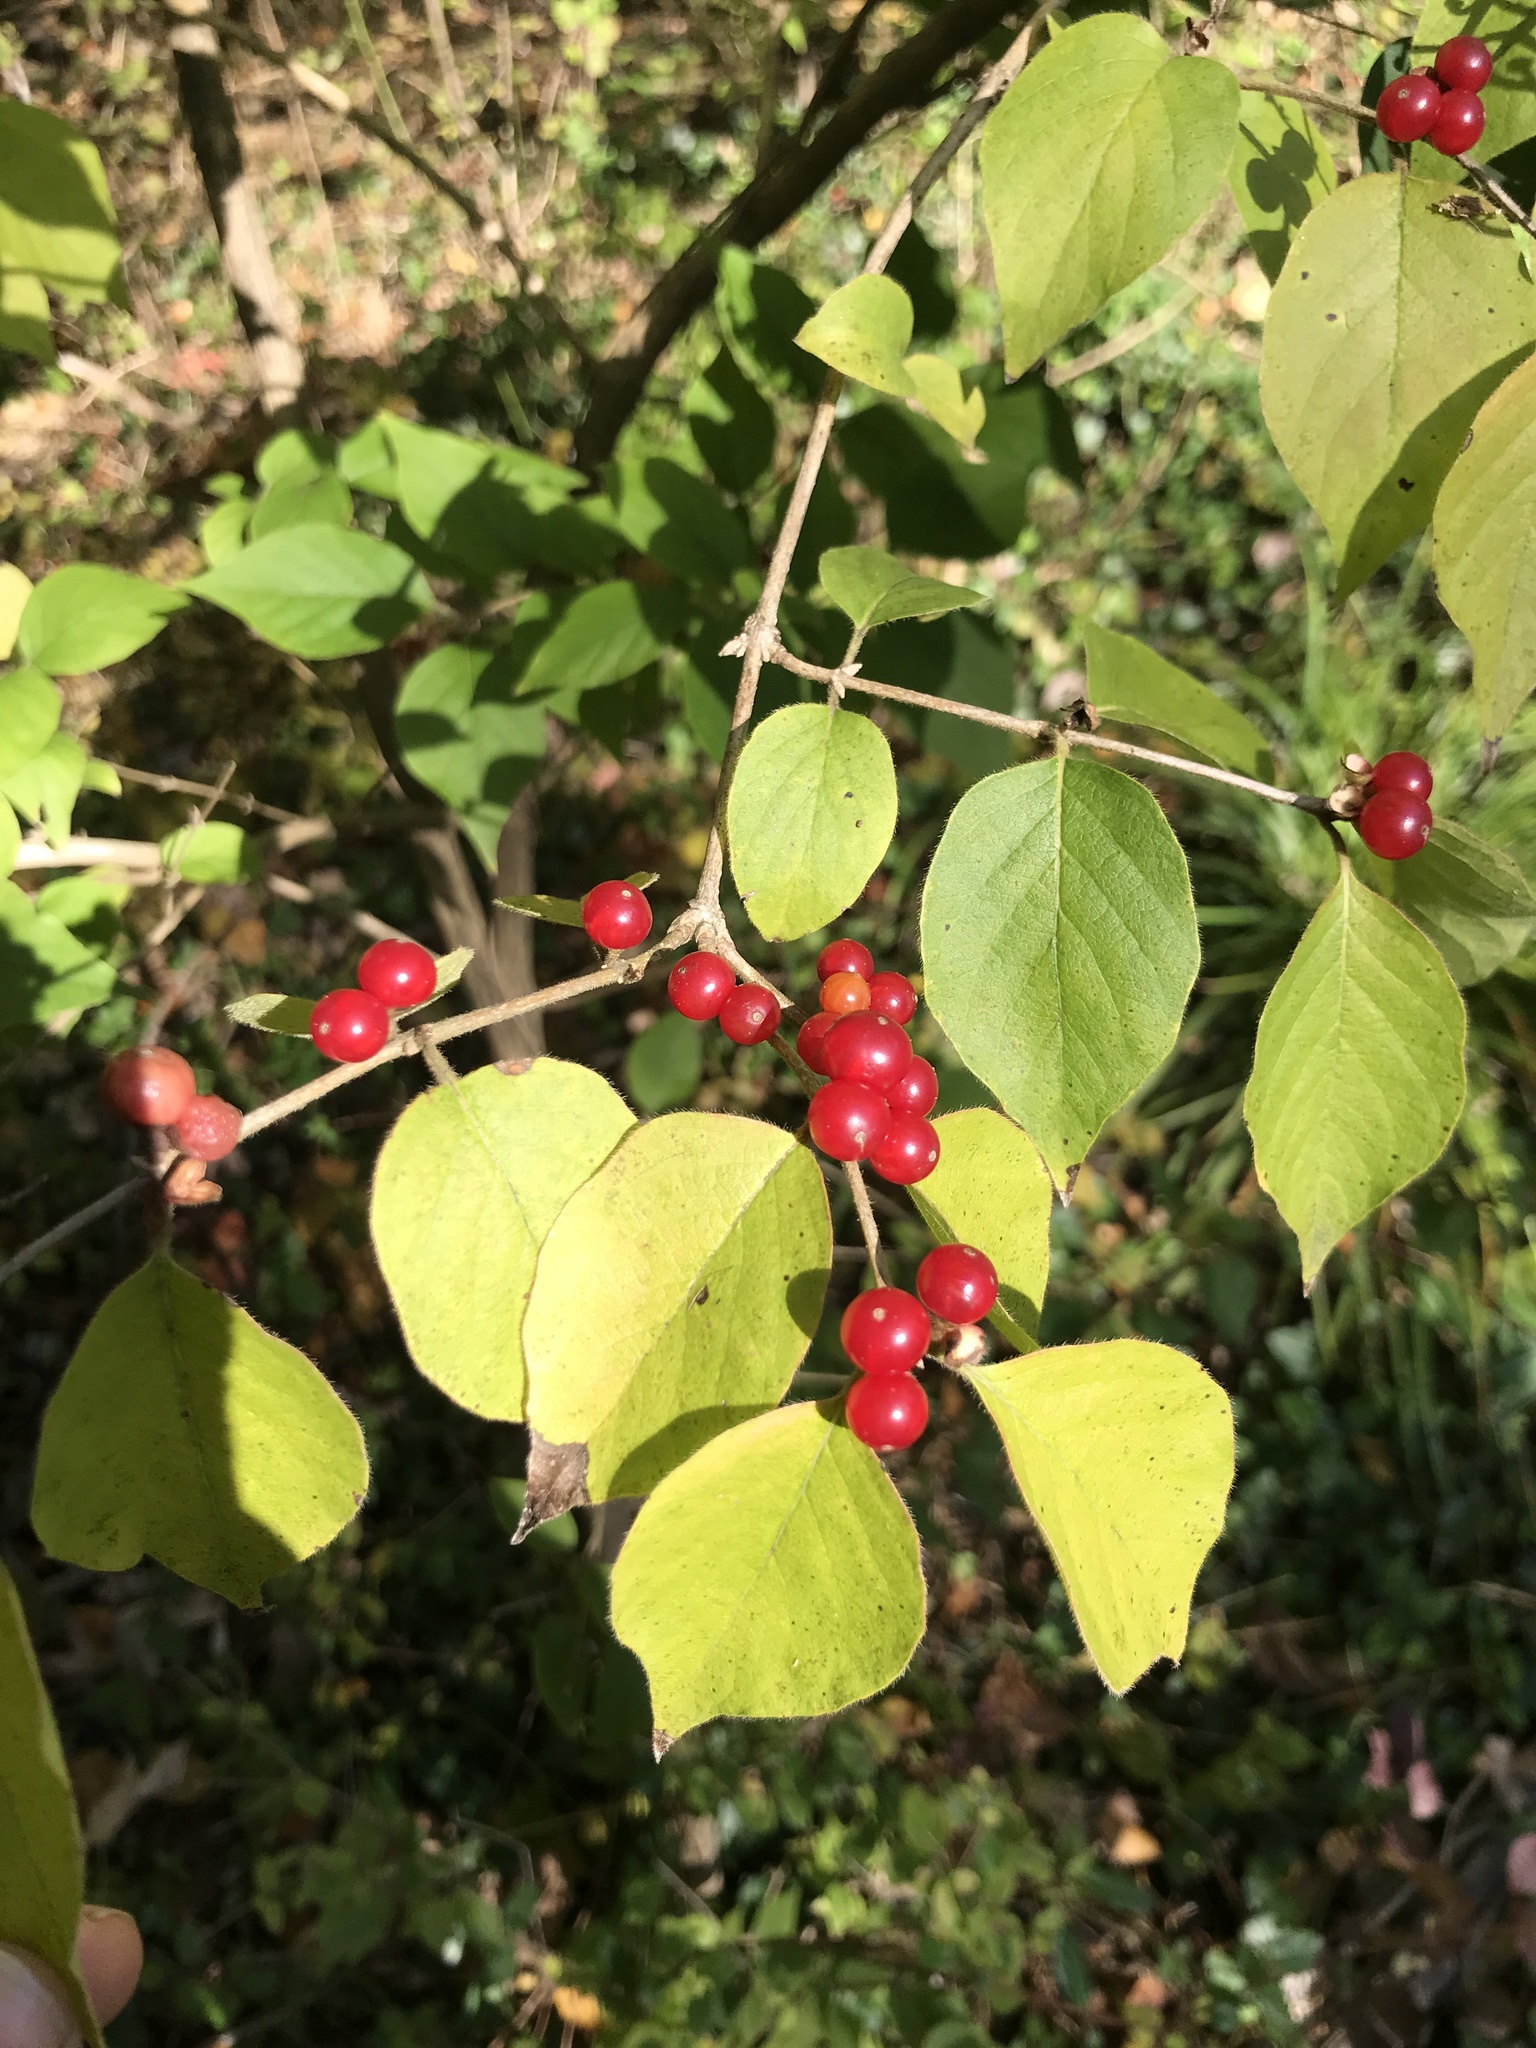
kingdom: Plantae
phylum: Tracheophyta
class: Magnoliopsida
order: Dipsacales
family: Caprifoliaceae
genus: Lonicera
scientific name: Lonicera maackii
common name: Amur honeysuckle
